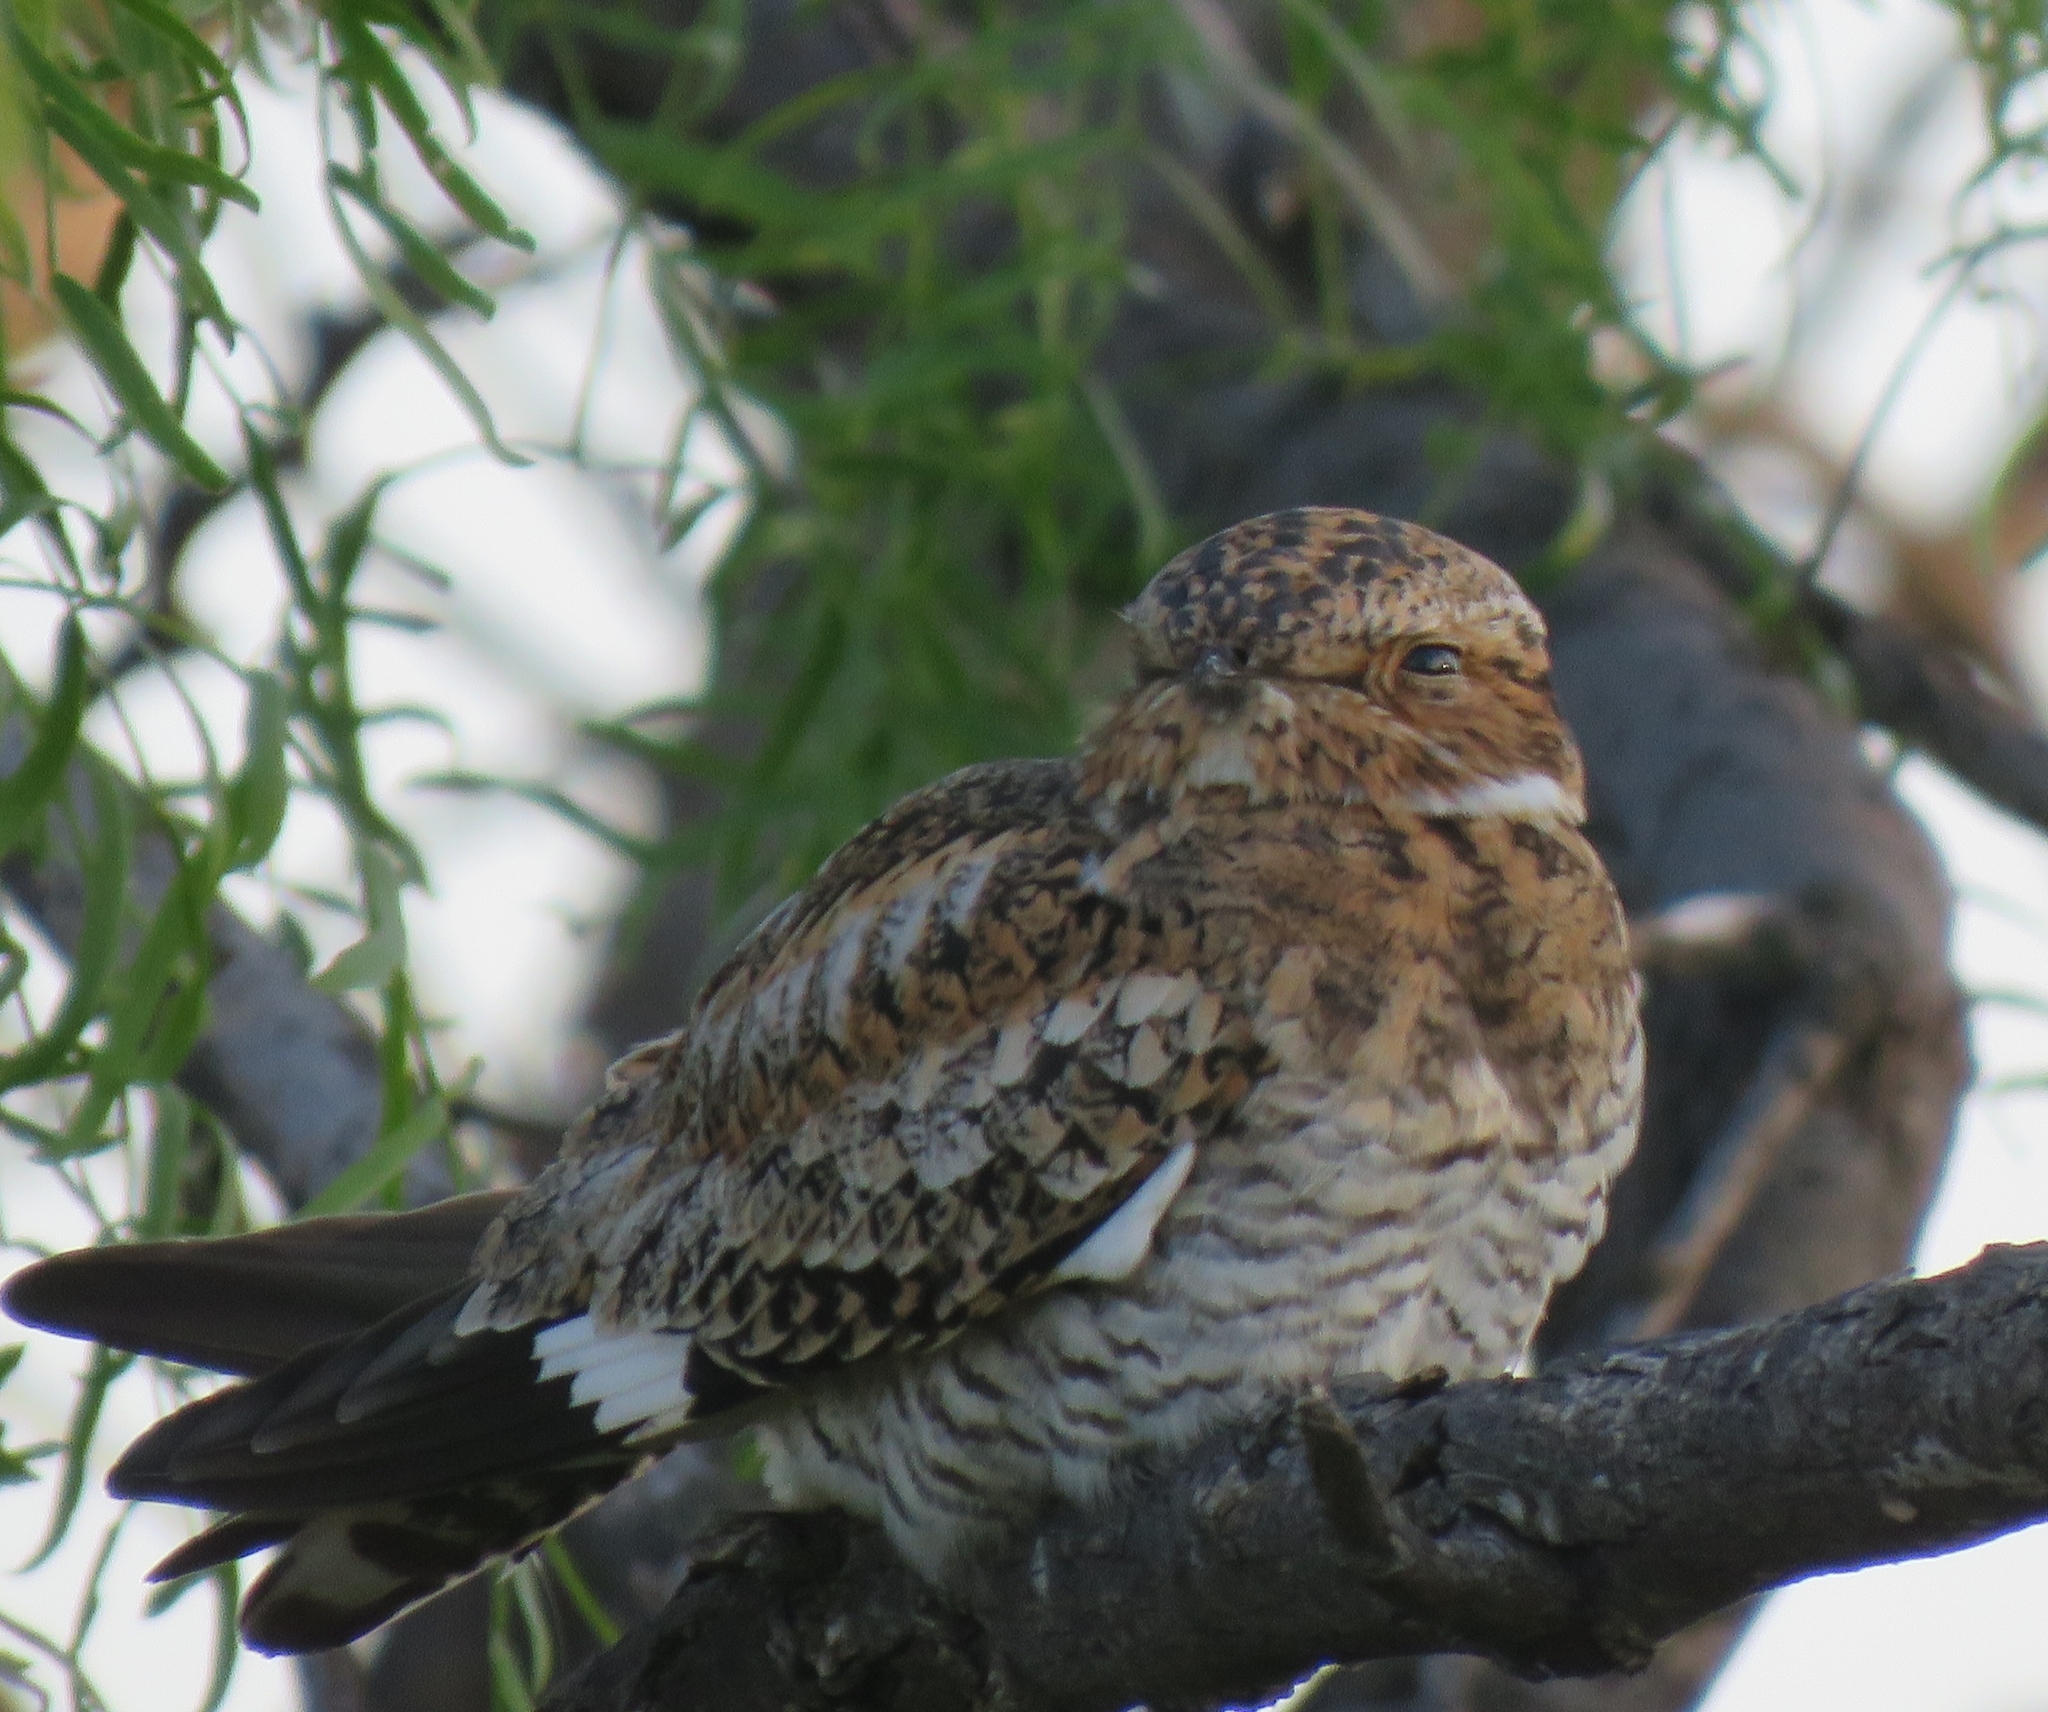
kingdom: Animalia
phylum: Chordata
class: Aves
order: Caprimulgiformes
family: Caprimulgidae
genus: Chordeiles
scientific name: Chordeiles minor
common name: Common nighthawk
